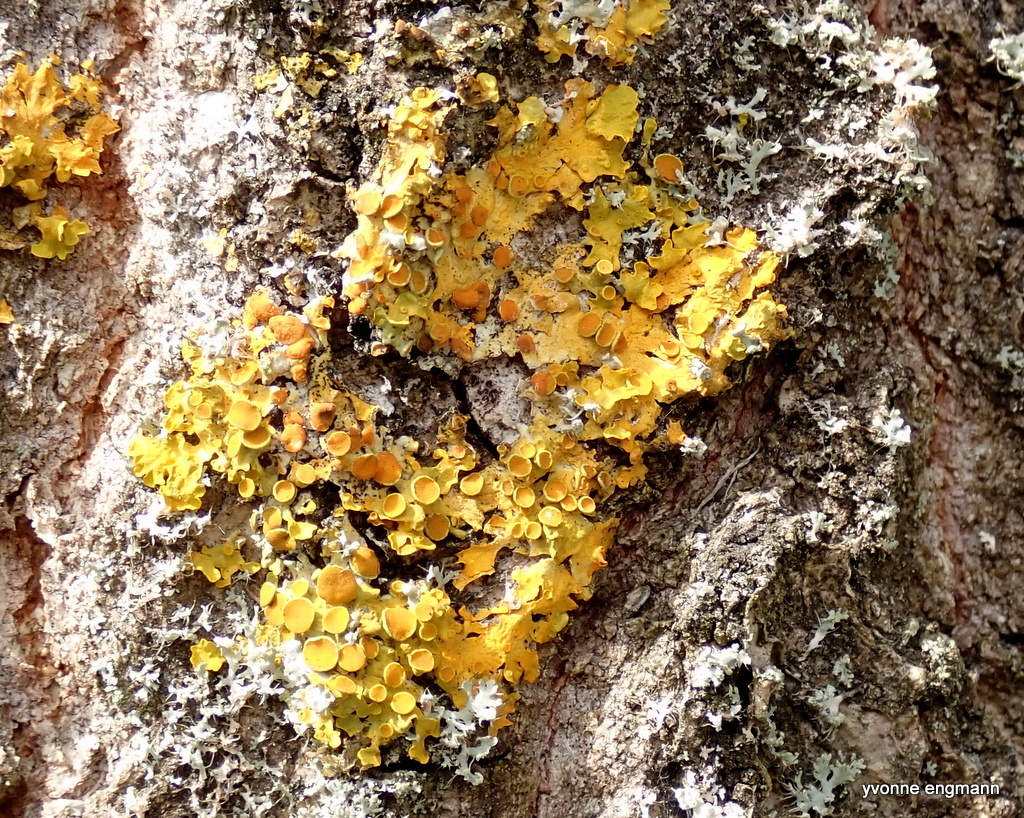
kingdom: Fungi
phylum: Ascomycota
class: Lecanoromycetes
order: Teloschistales
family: Teloschistaceae
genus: Xanthoria
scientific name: Xanthoria parietina
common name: Common orange lichen
